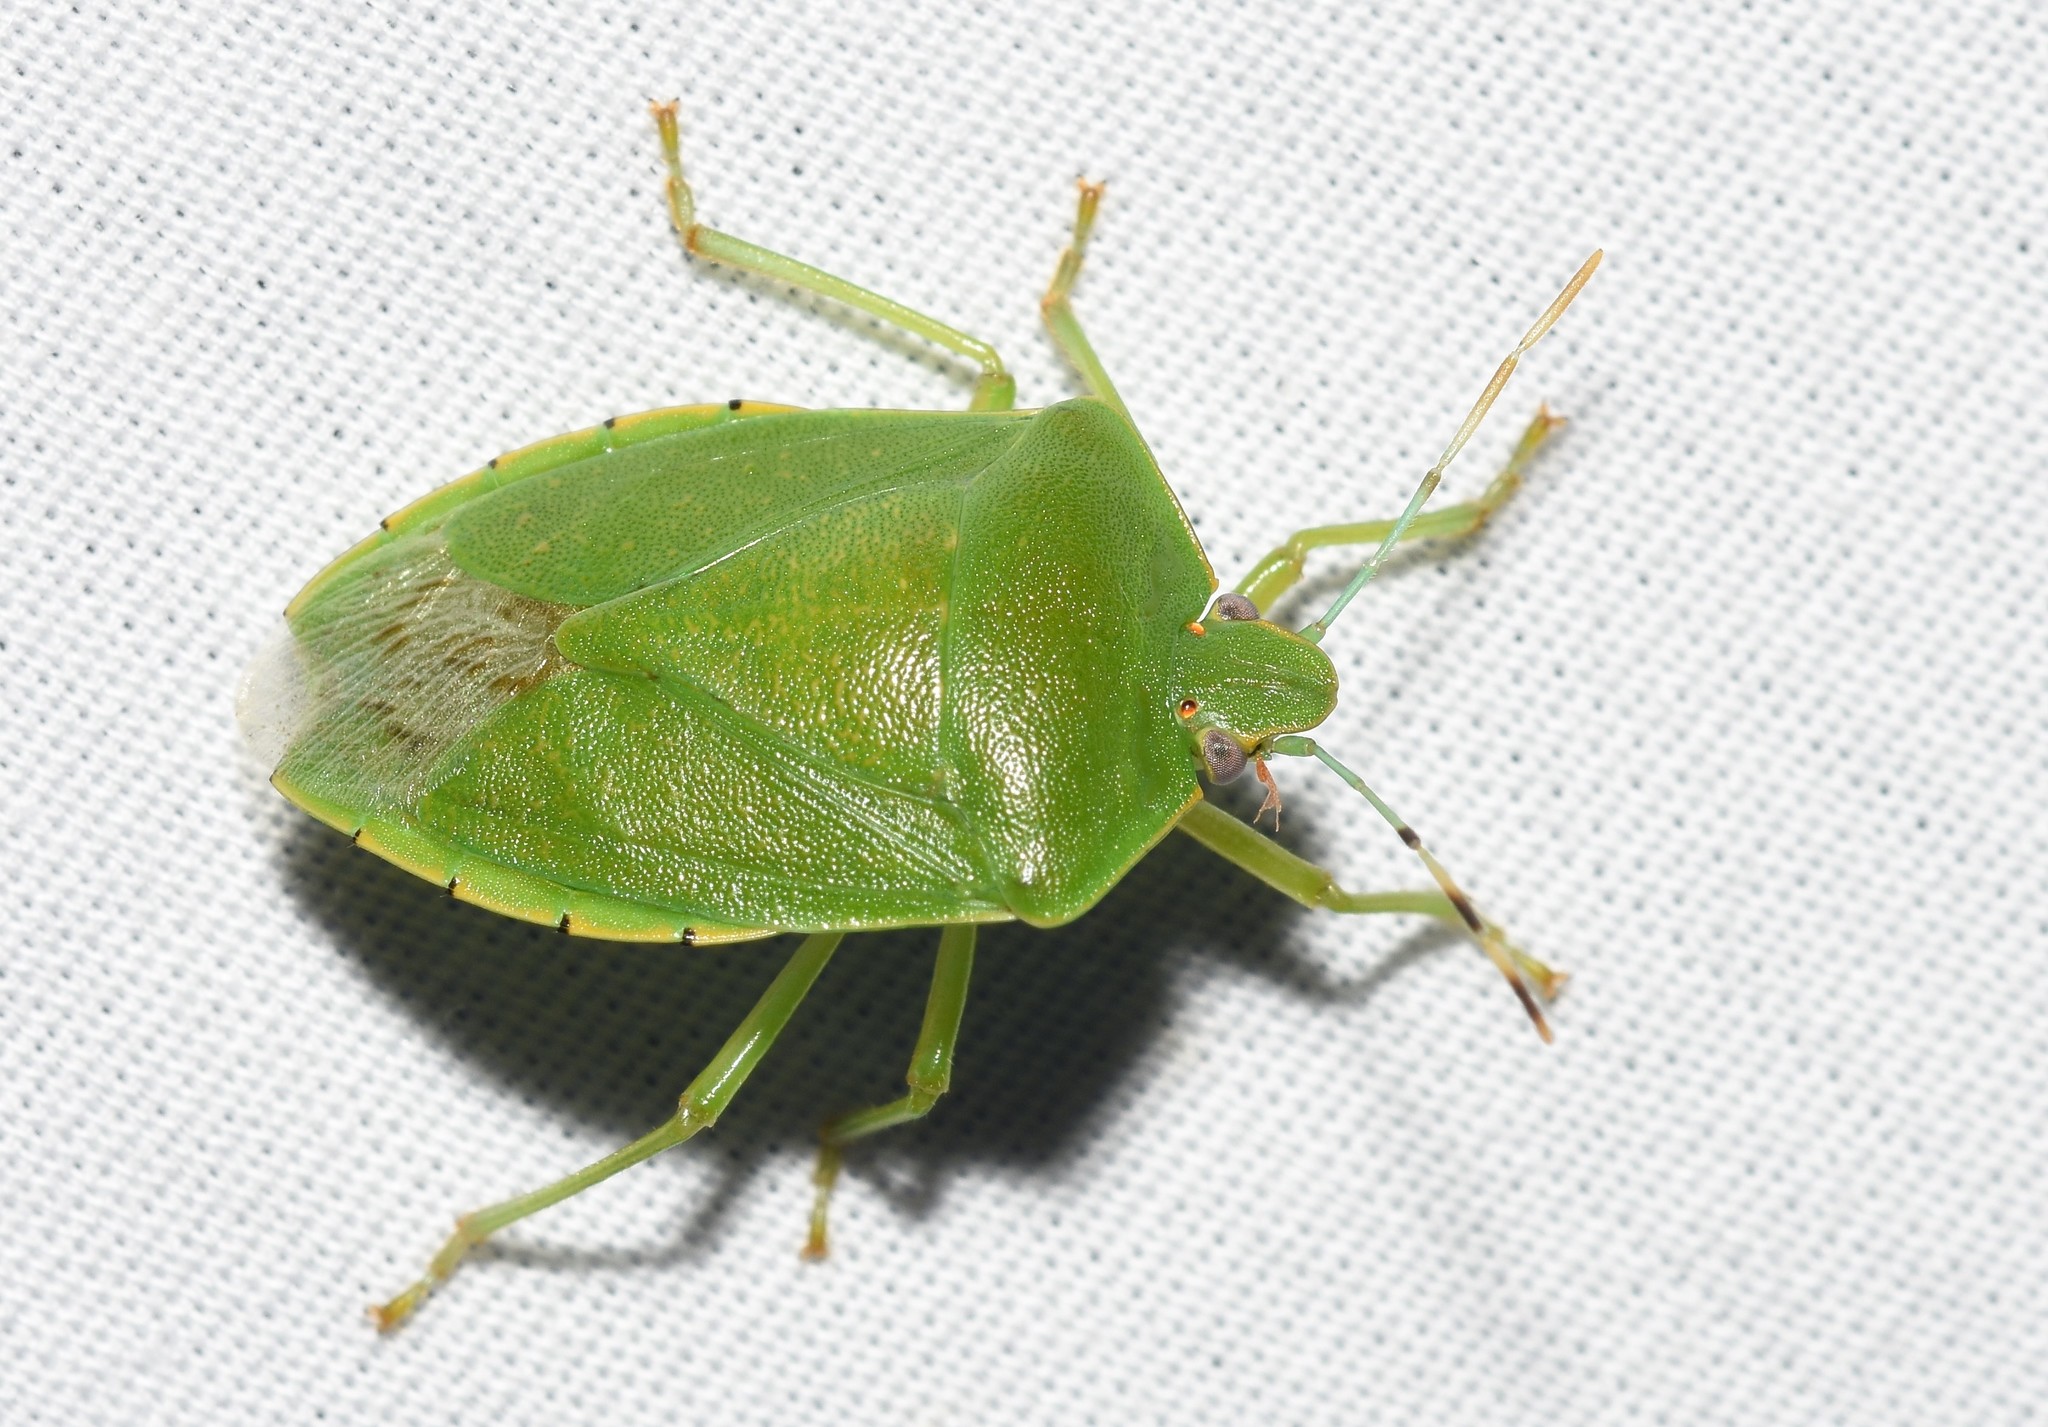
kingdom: Animalia
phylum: Arthropoda
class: Insecta
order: Hemiptera
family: Pentatomidae
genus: Chinavia
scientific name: Chinavia hilaris
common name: Green stink bug
